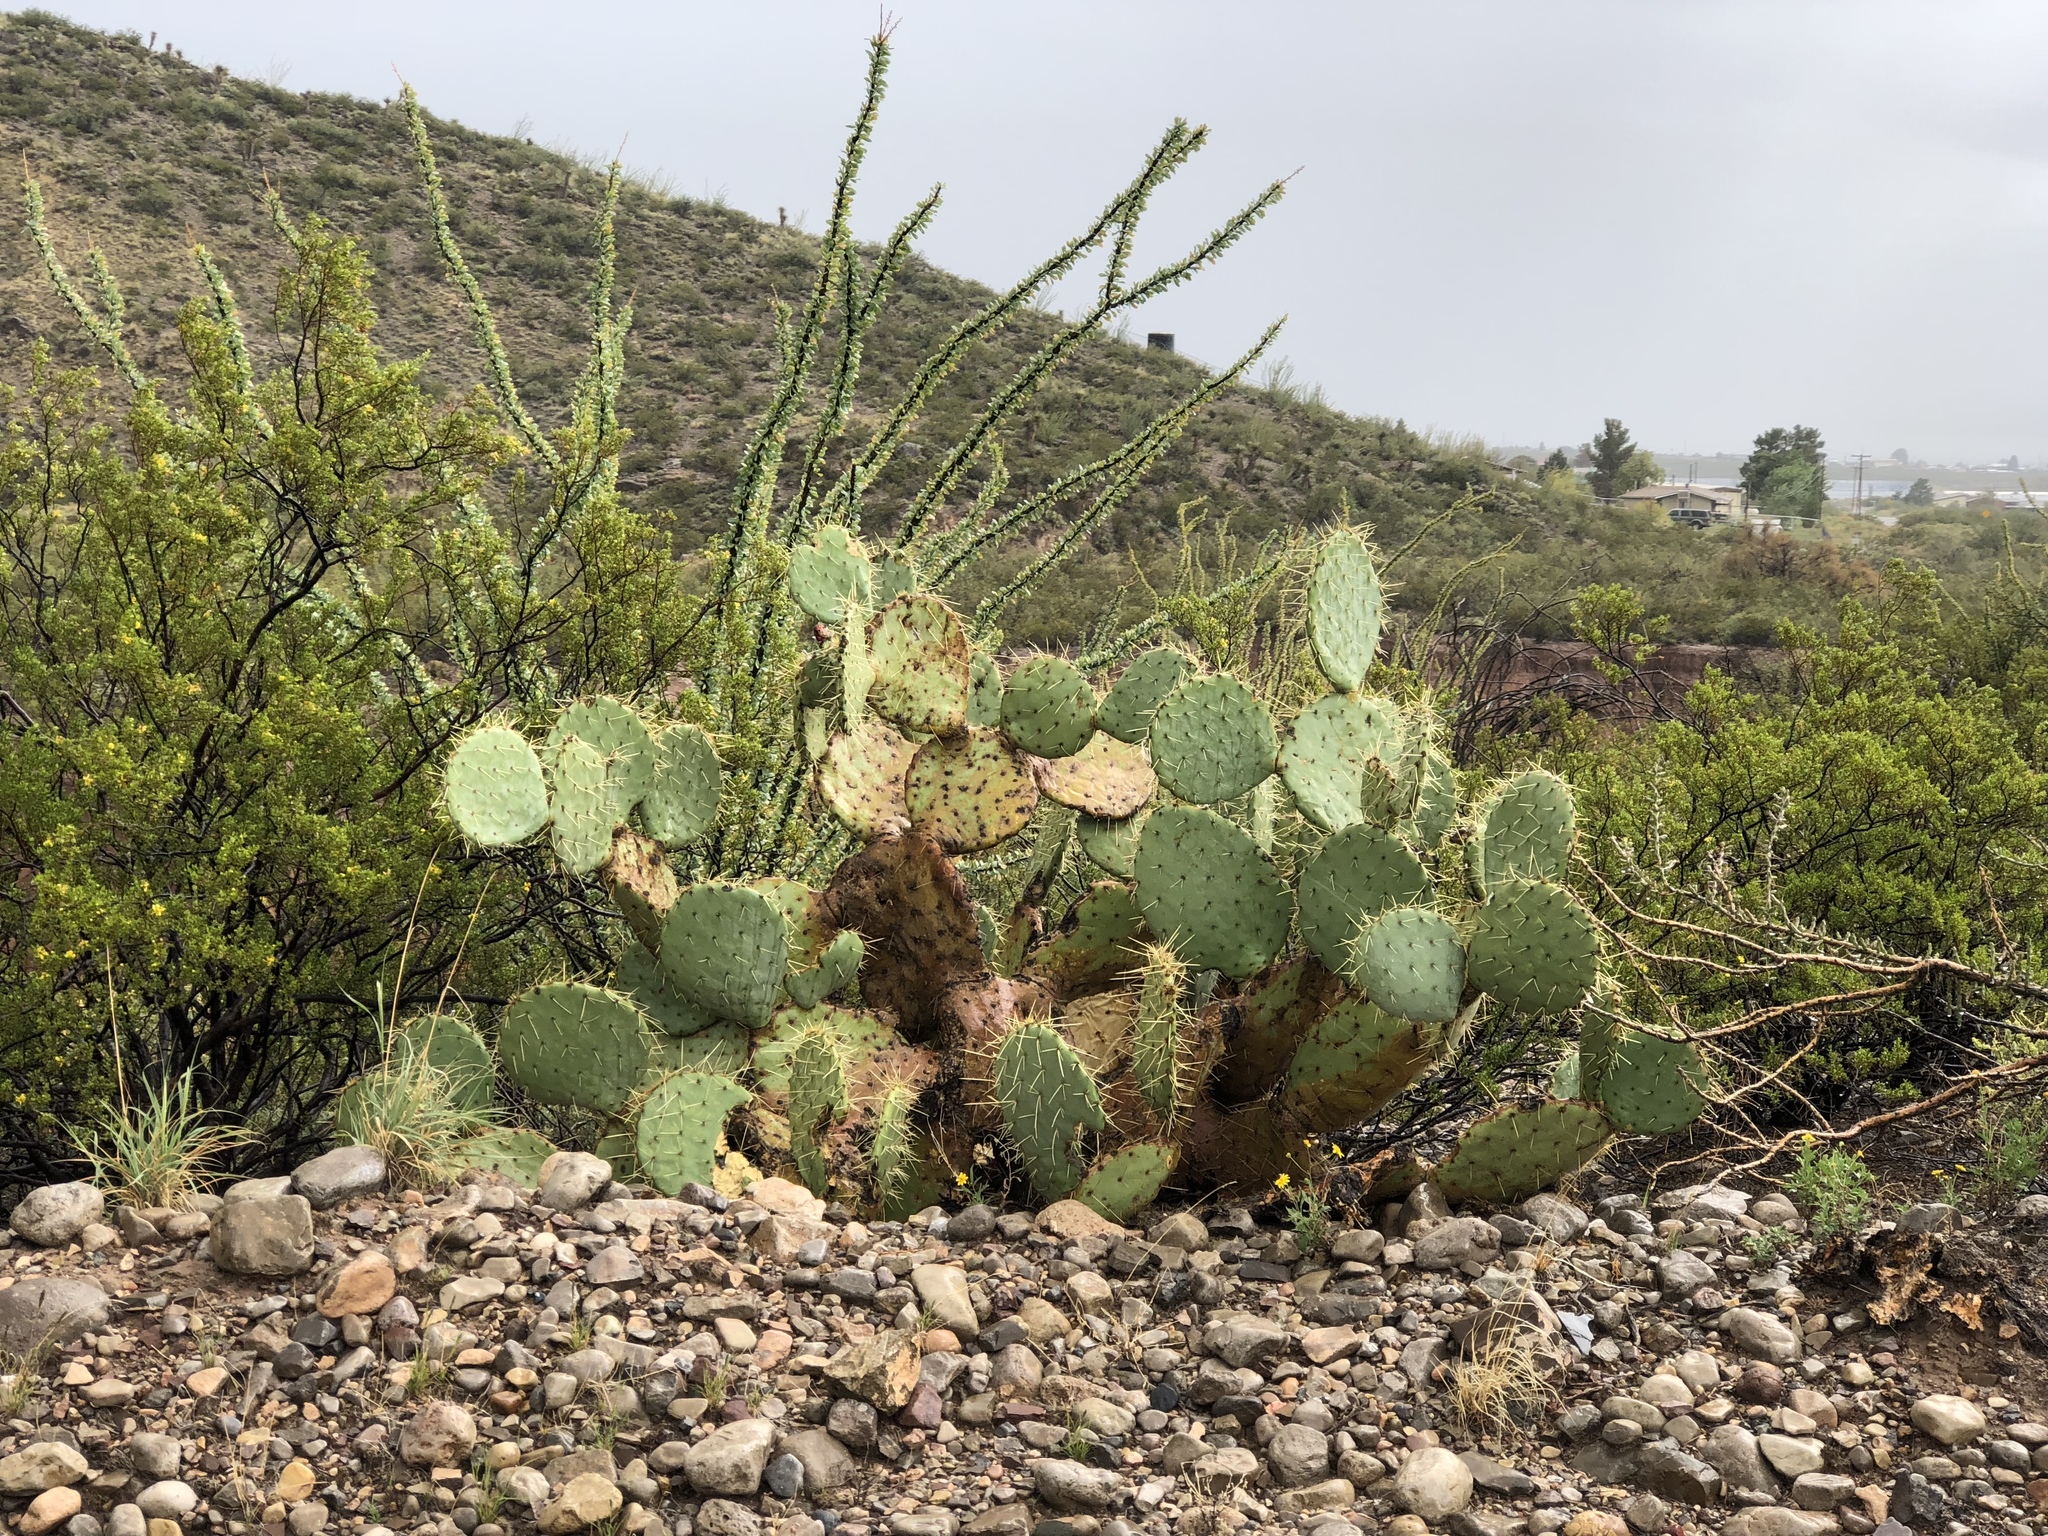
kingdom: Plantae
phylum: Tracheophyta
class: Magnoliopsida
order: Caryophyllales
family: Cactaceae
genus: Opuntia
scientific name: Opuntia orbiculata
